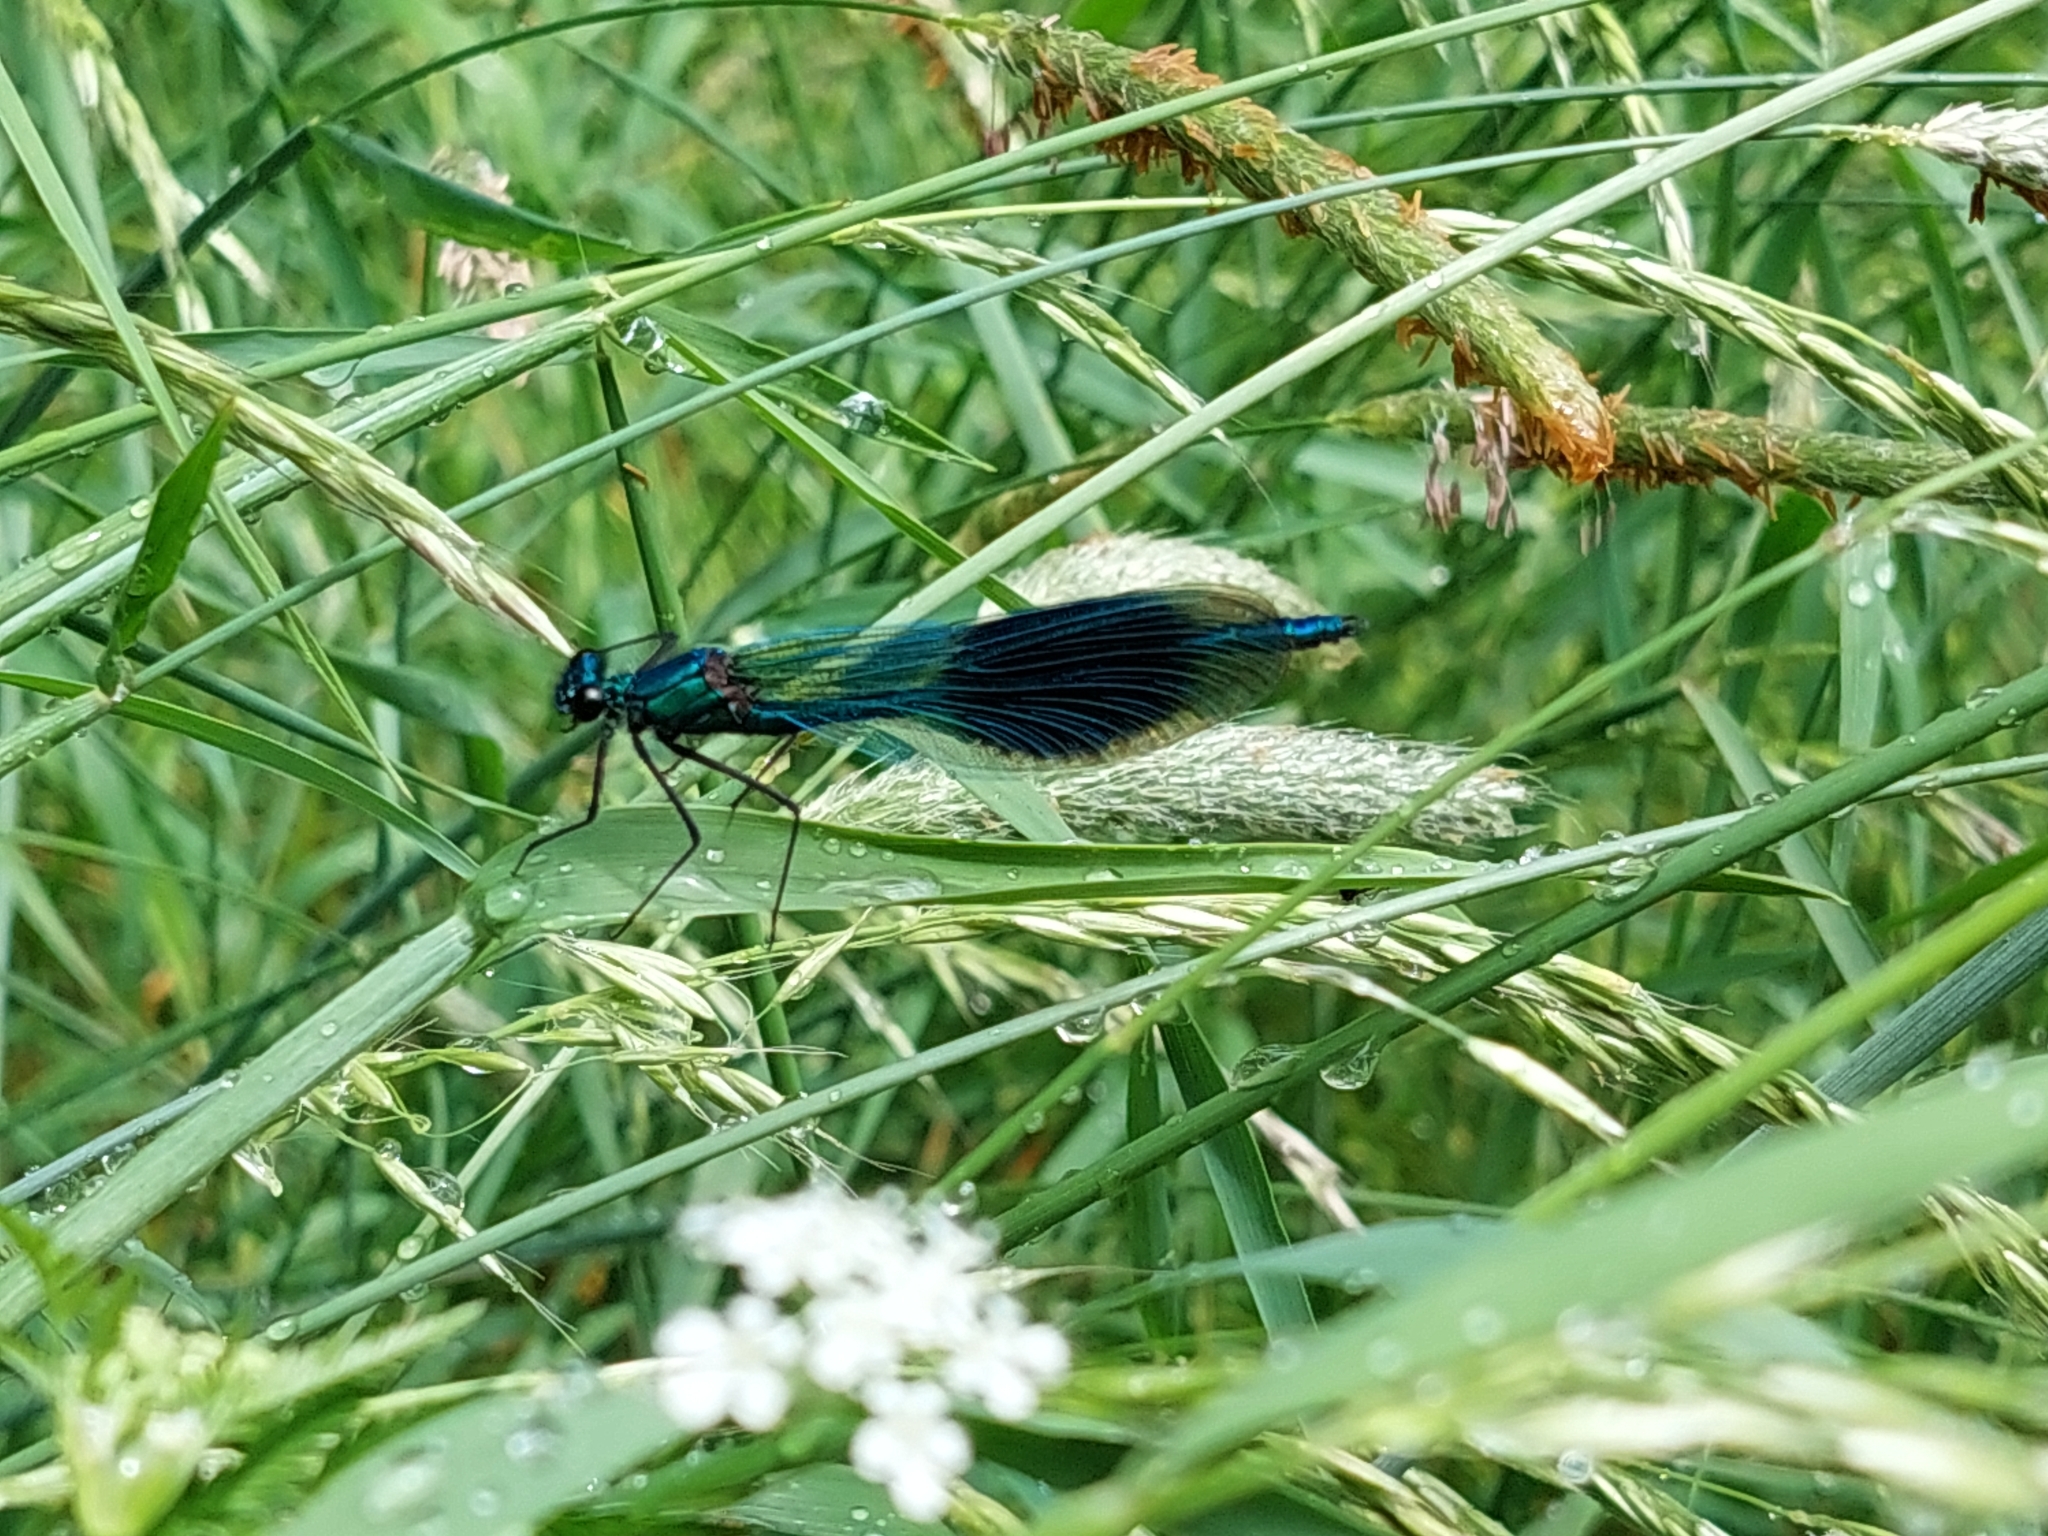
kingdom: Animalia
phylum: Arthropoda
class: Insecta
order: Odonata
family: Calopterygidae
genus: Calopteryx
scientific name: Calopteryx splendens
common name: Banded demoiselle
